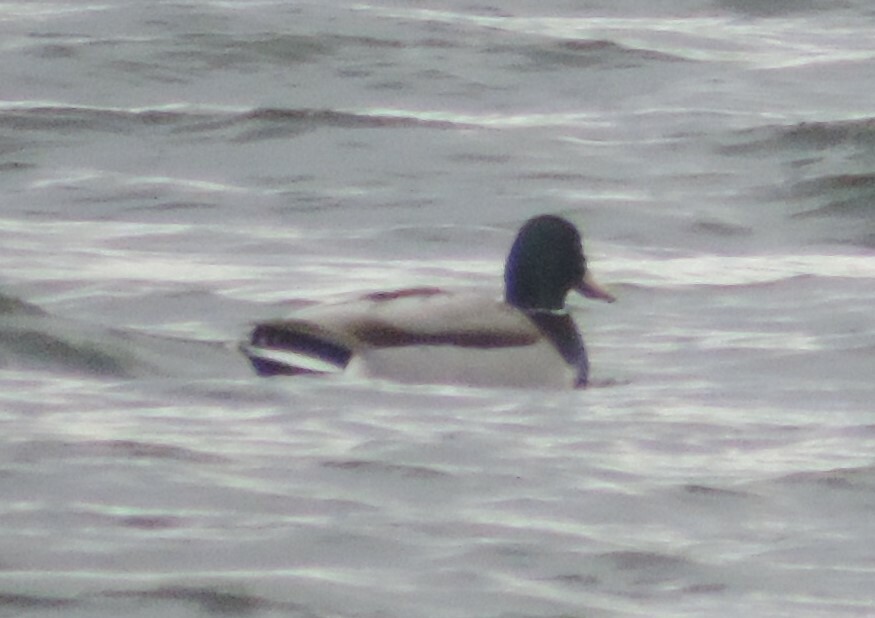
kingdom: Animalia
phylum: Chordata
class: Aves
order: Anseriformes
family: Anatidae
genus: Anas
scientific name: Anas platyrhynchos
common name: Mallard
